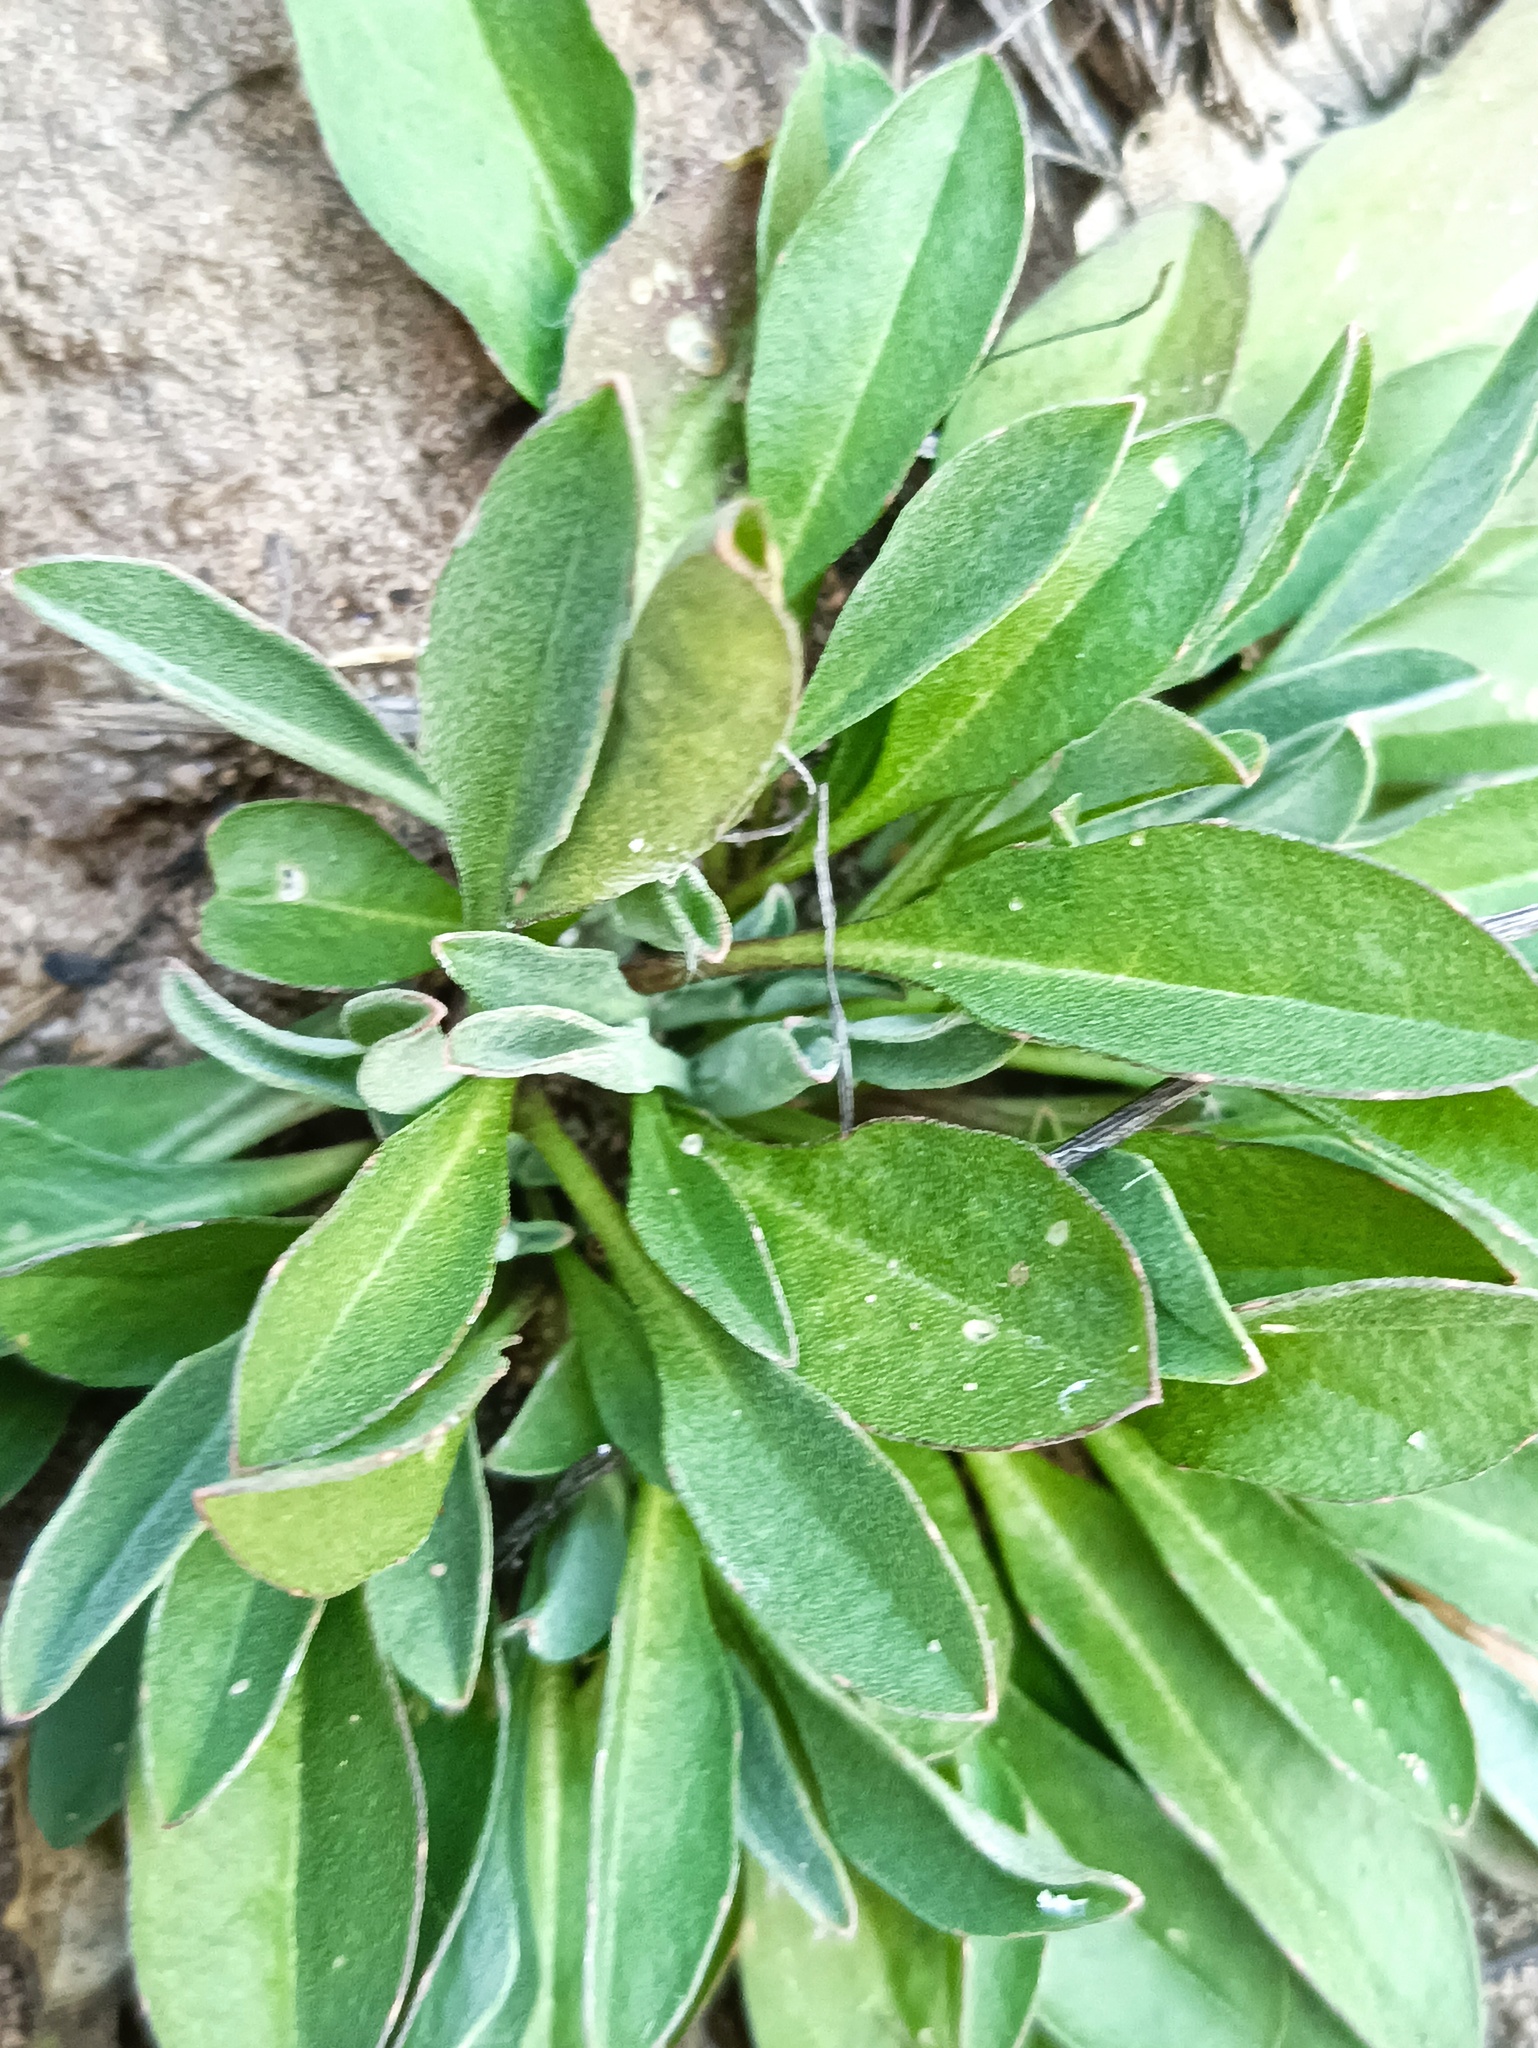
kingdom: Plantae
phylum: Tracheophyta
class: Magnoliopsida
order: Brassicales
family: Brassicaceae
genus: Berteroa
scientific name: Berteroa incana
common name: Hoary alison
